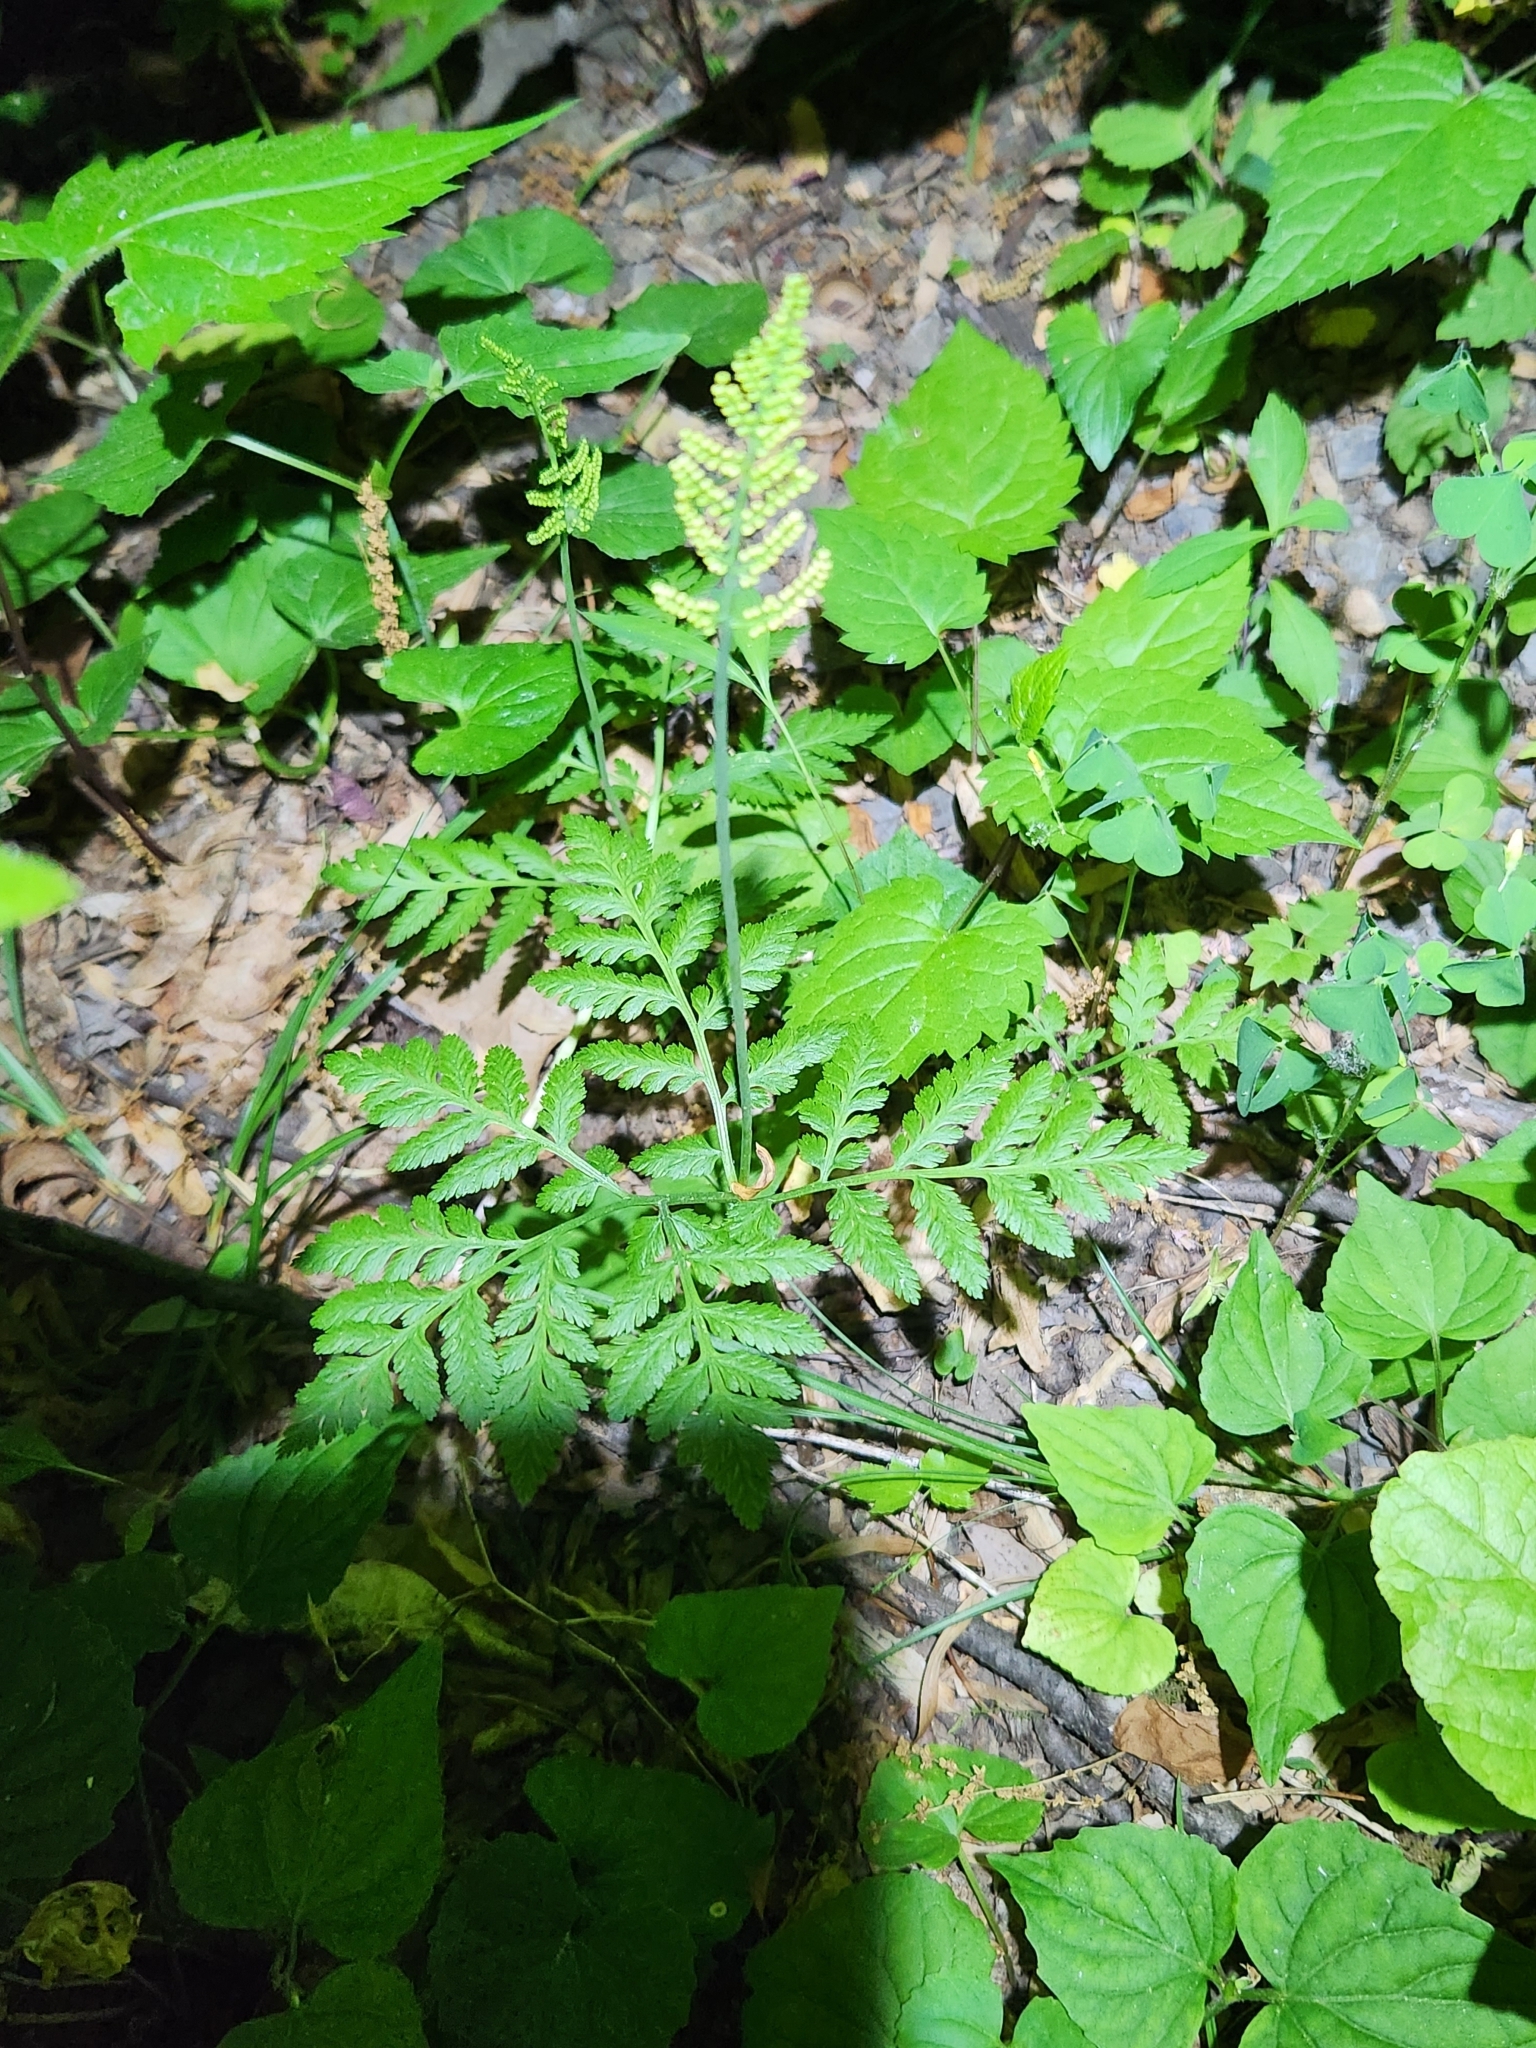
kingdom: Plantae
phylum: Tracheophyta
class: Polypodiopsida
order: Ophioglossales
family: Ophioglossaceae
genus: Botrypus
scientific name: Botrypus virginianus
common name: Common grapefern
